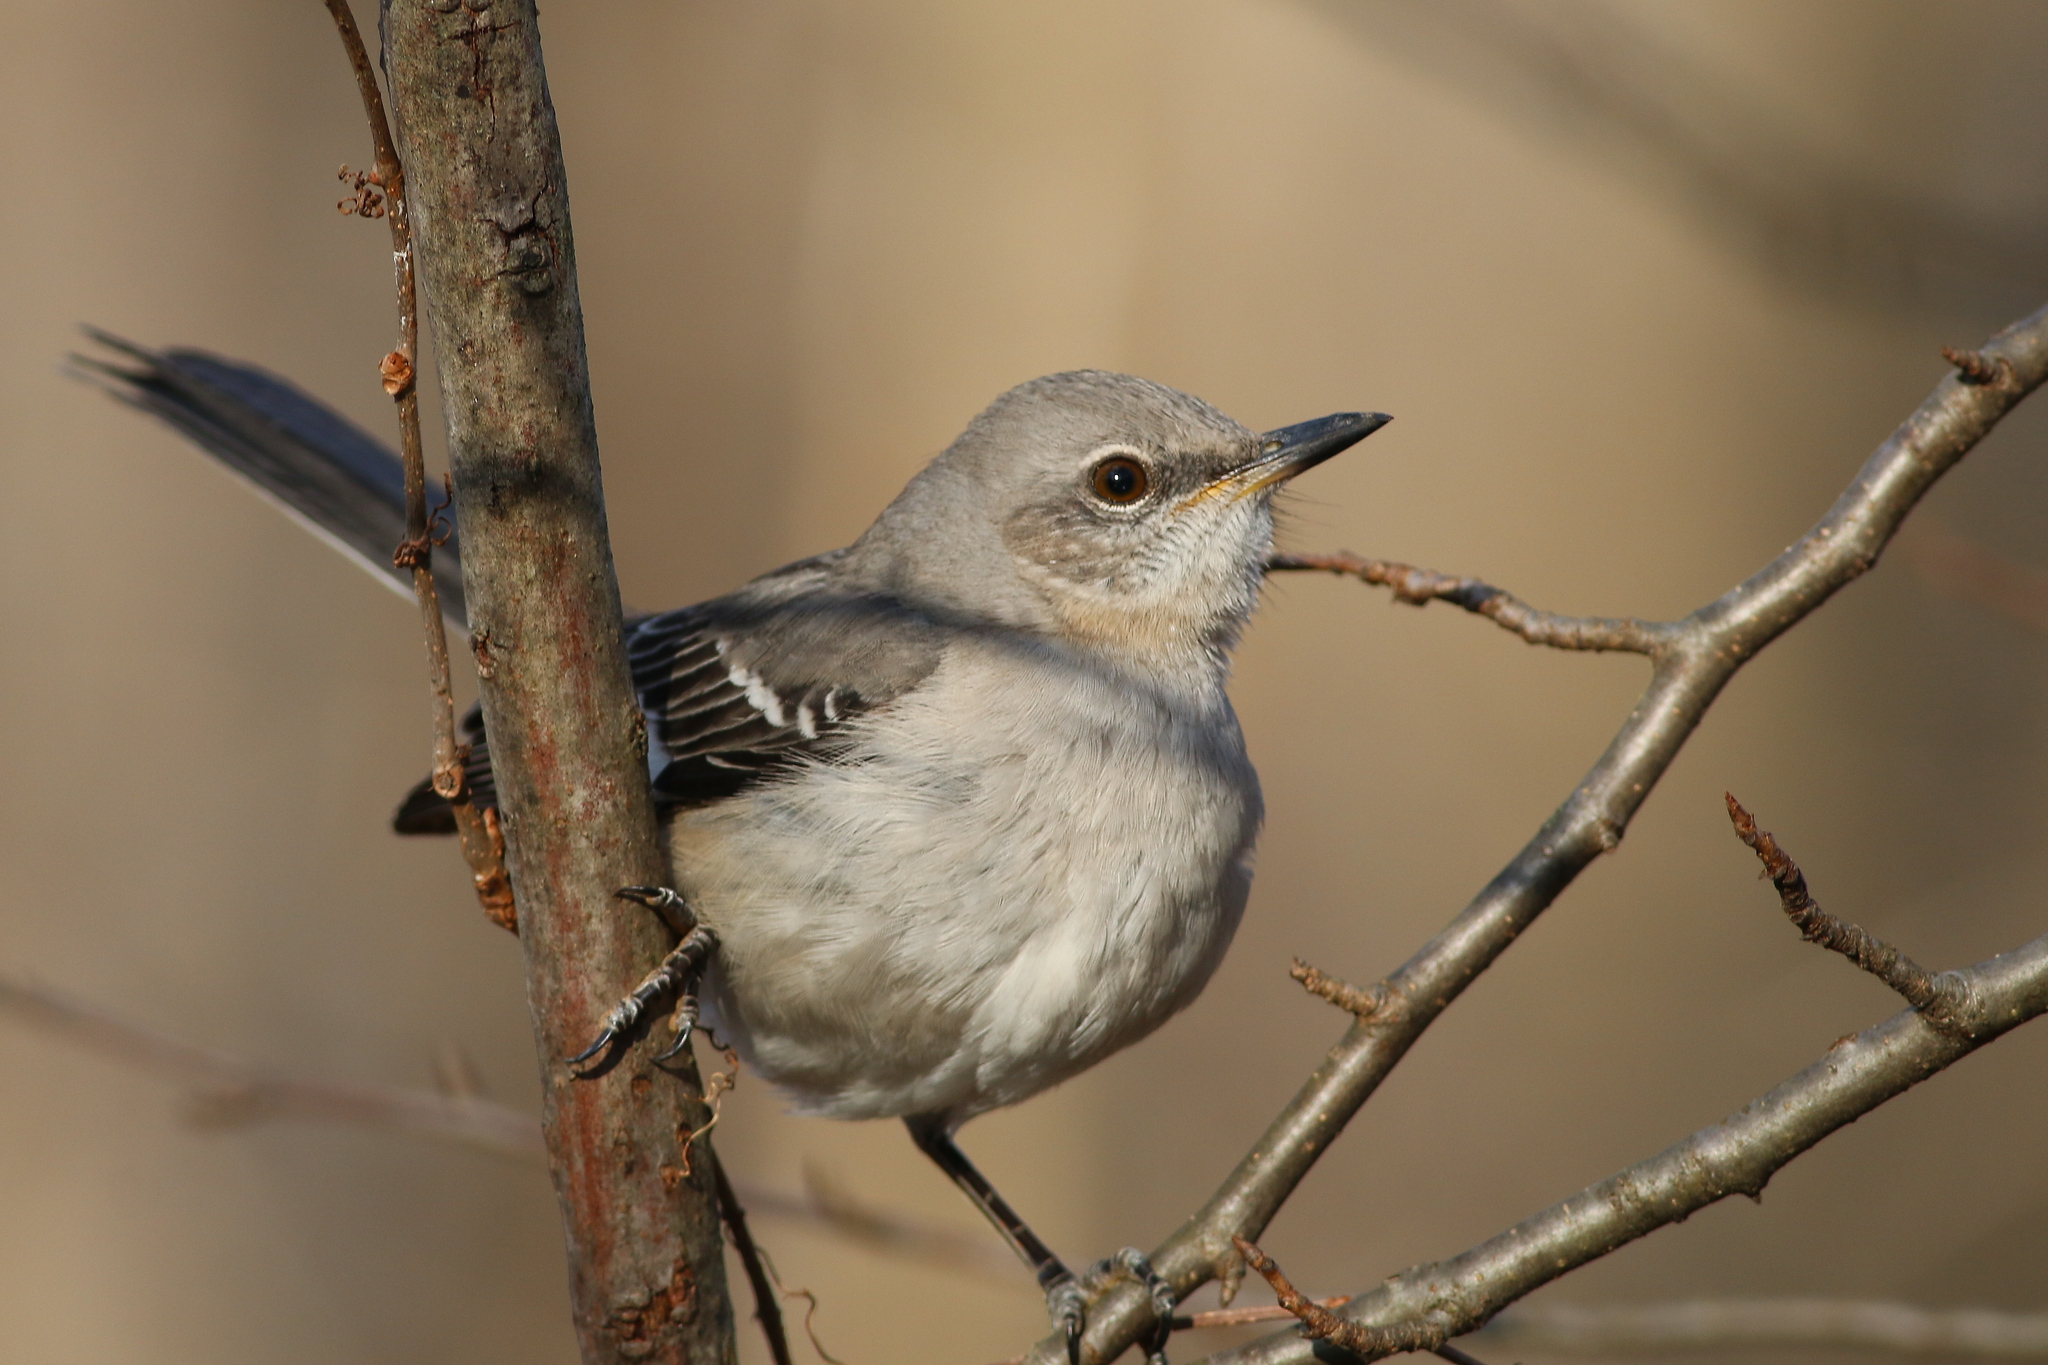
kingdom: Animalia
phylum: Chordata
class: Aves
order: Passeriformes
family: Mimidae
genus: Mimus
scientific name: Mimus polyglottos
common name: Northern mockingbird
